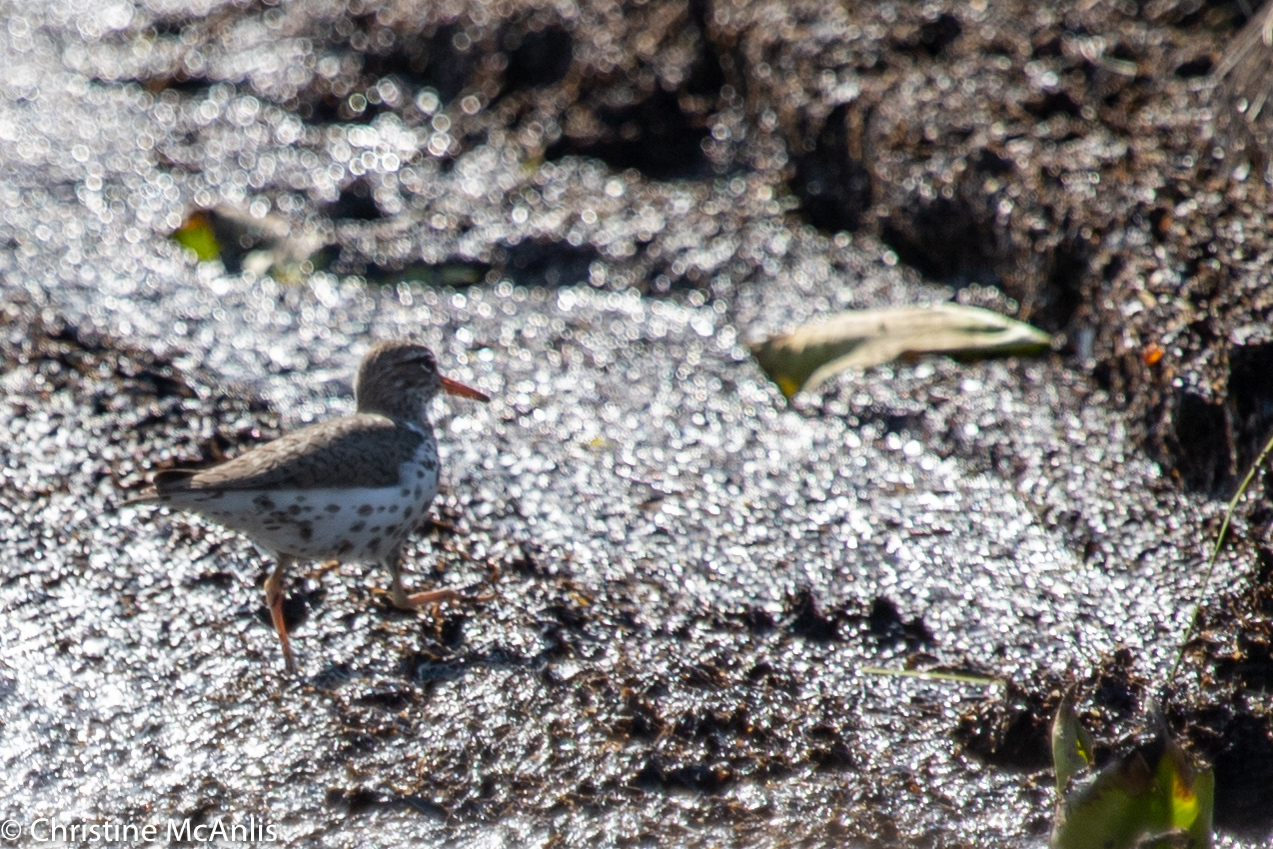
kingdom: Animalia
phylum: Chordata
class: Aves
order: Charadriiformes
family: Scolopacidae
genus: Actitis
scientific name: Actitis macularius
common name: Spotted sandpiper
